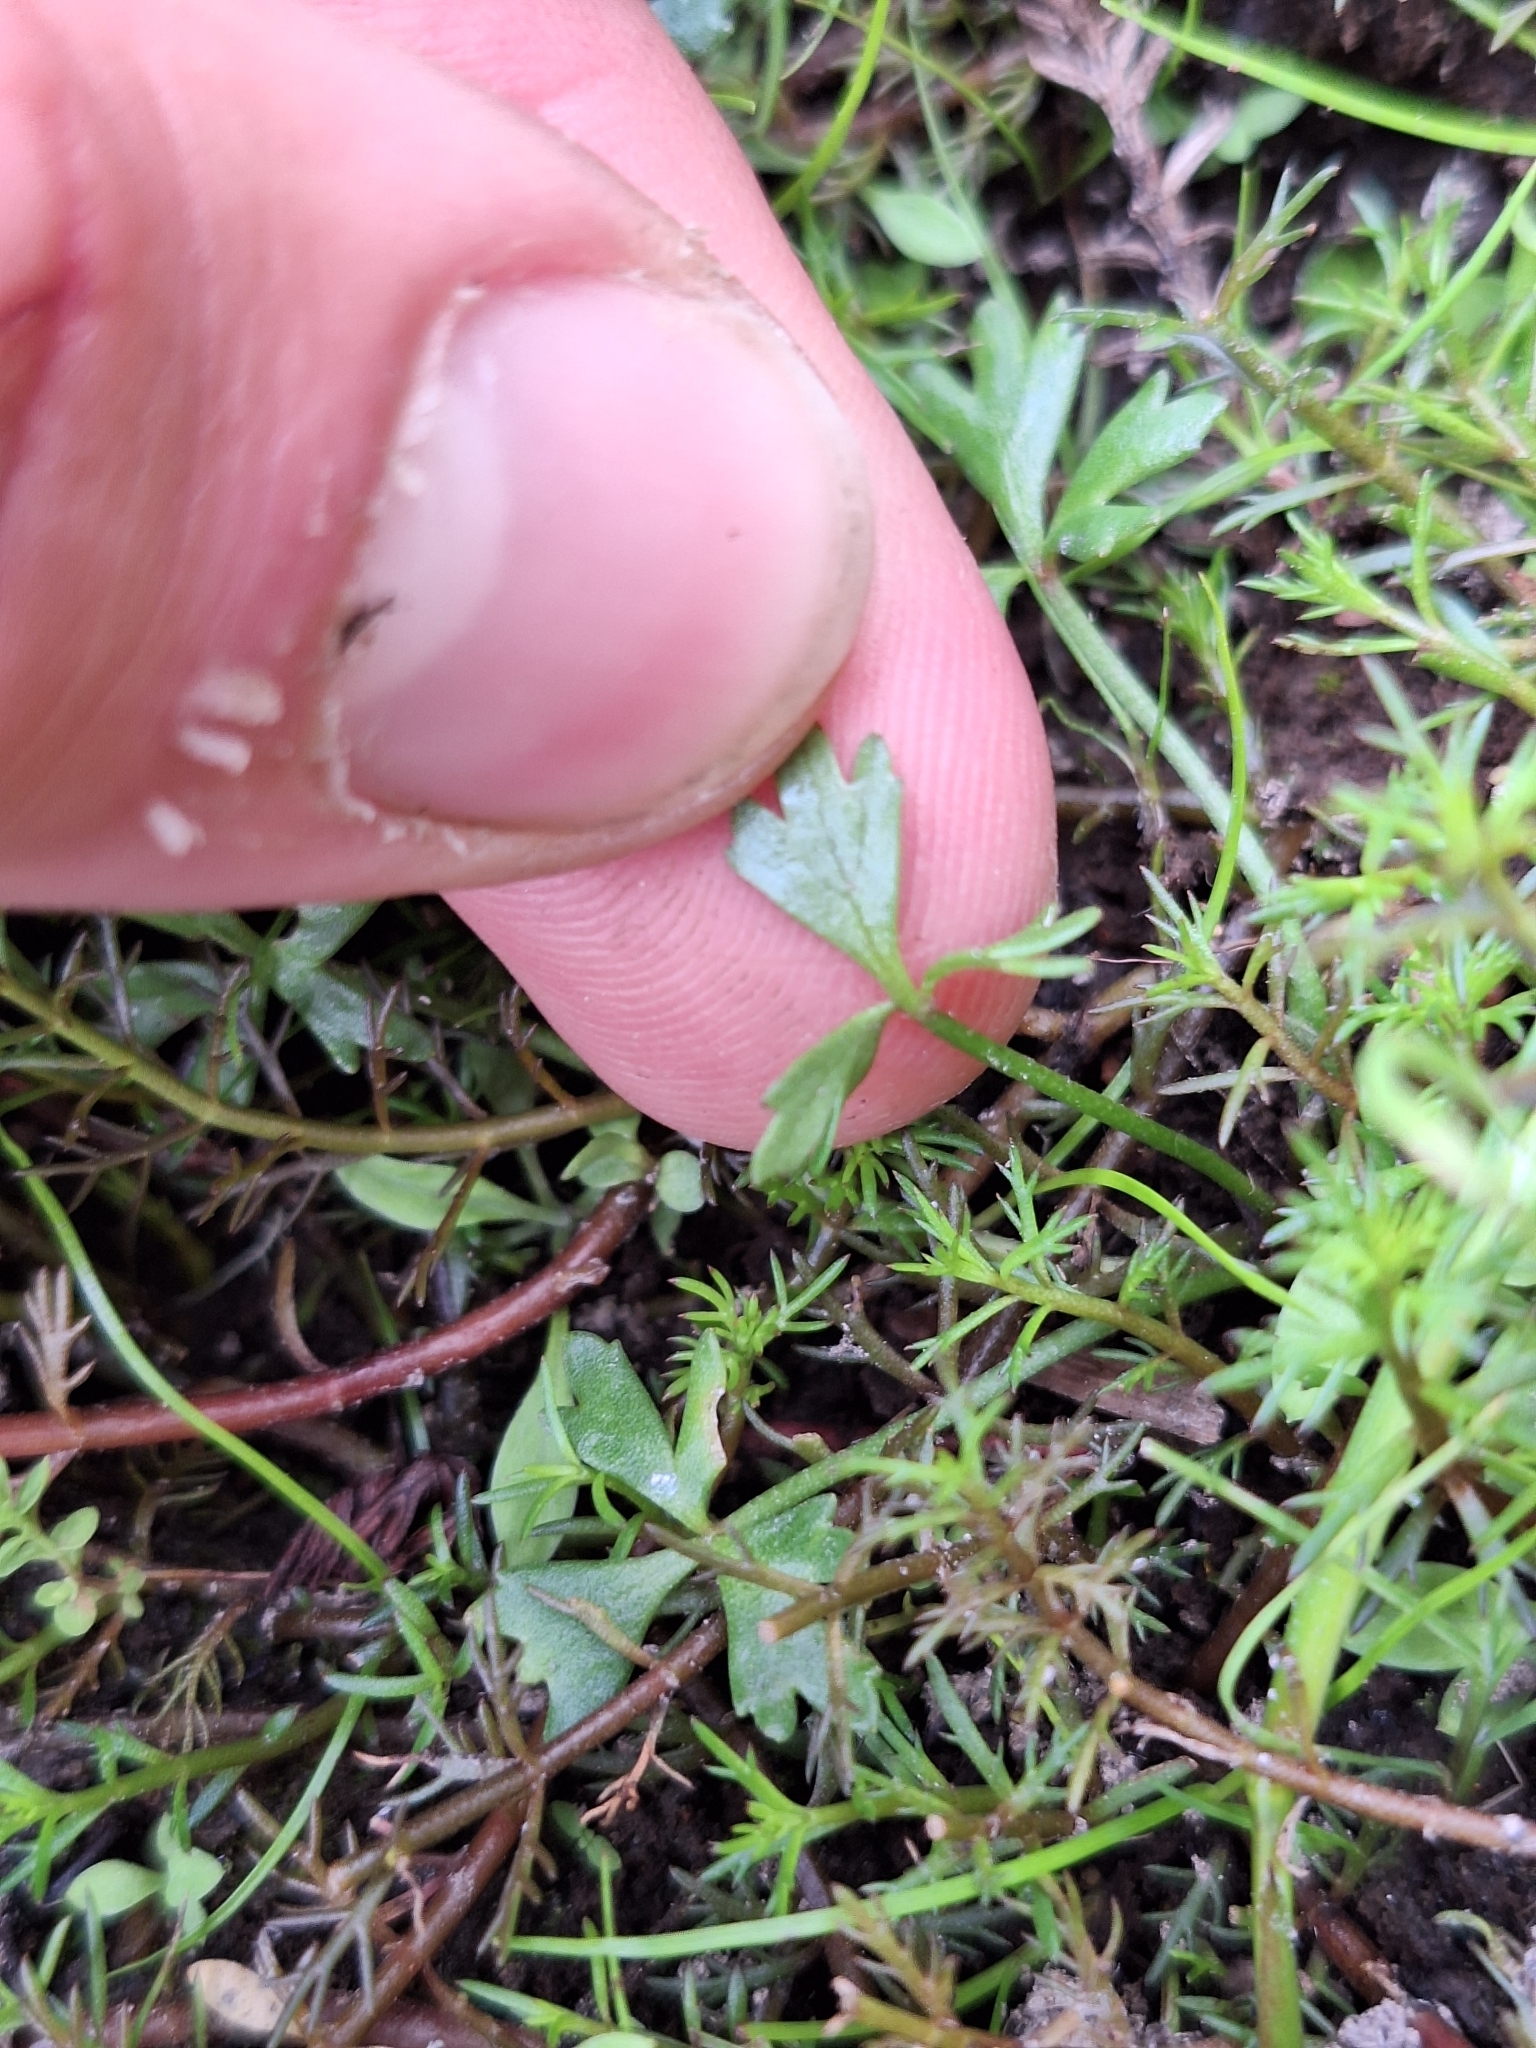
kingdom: Plantae
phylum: Tracheophyta
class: Magnoliopsida
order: Ranunculales
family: Ranunculaceae
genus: Ranunculus
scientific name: Ranunculus amphitrichus
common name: Small river buttercup
